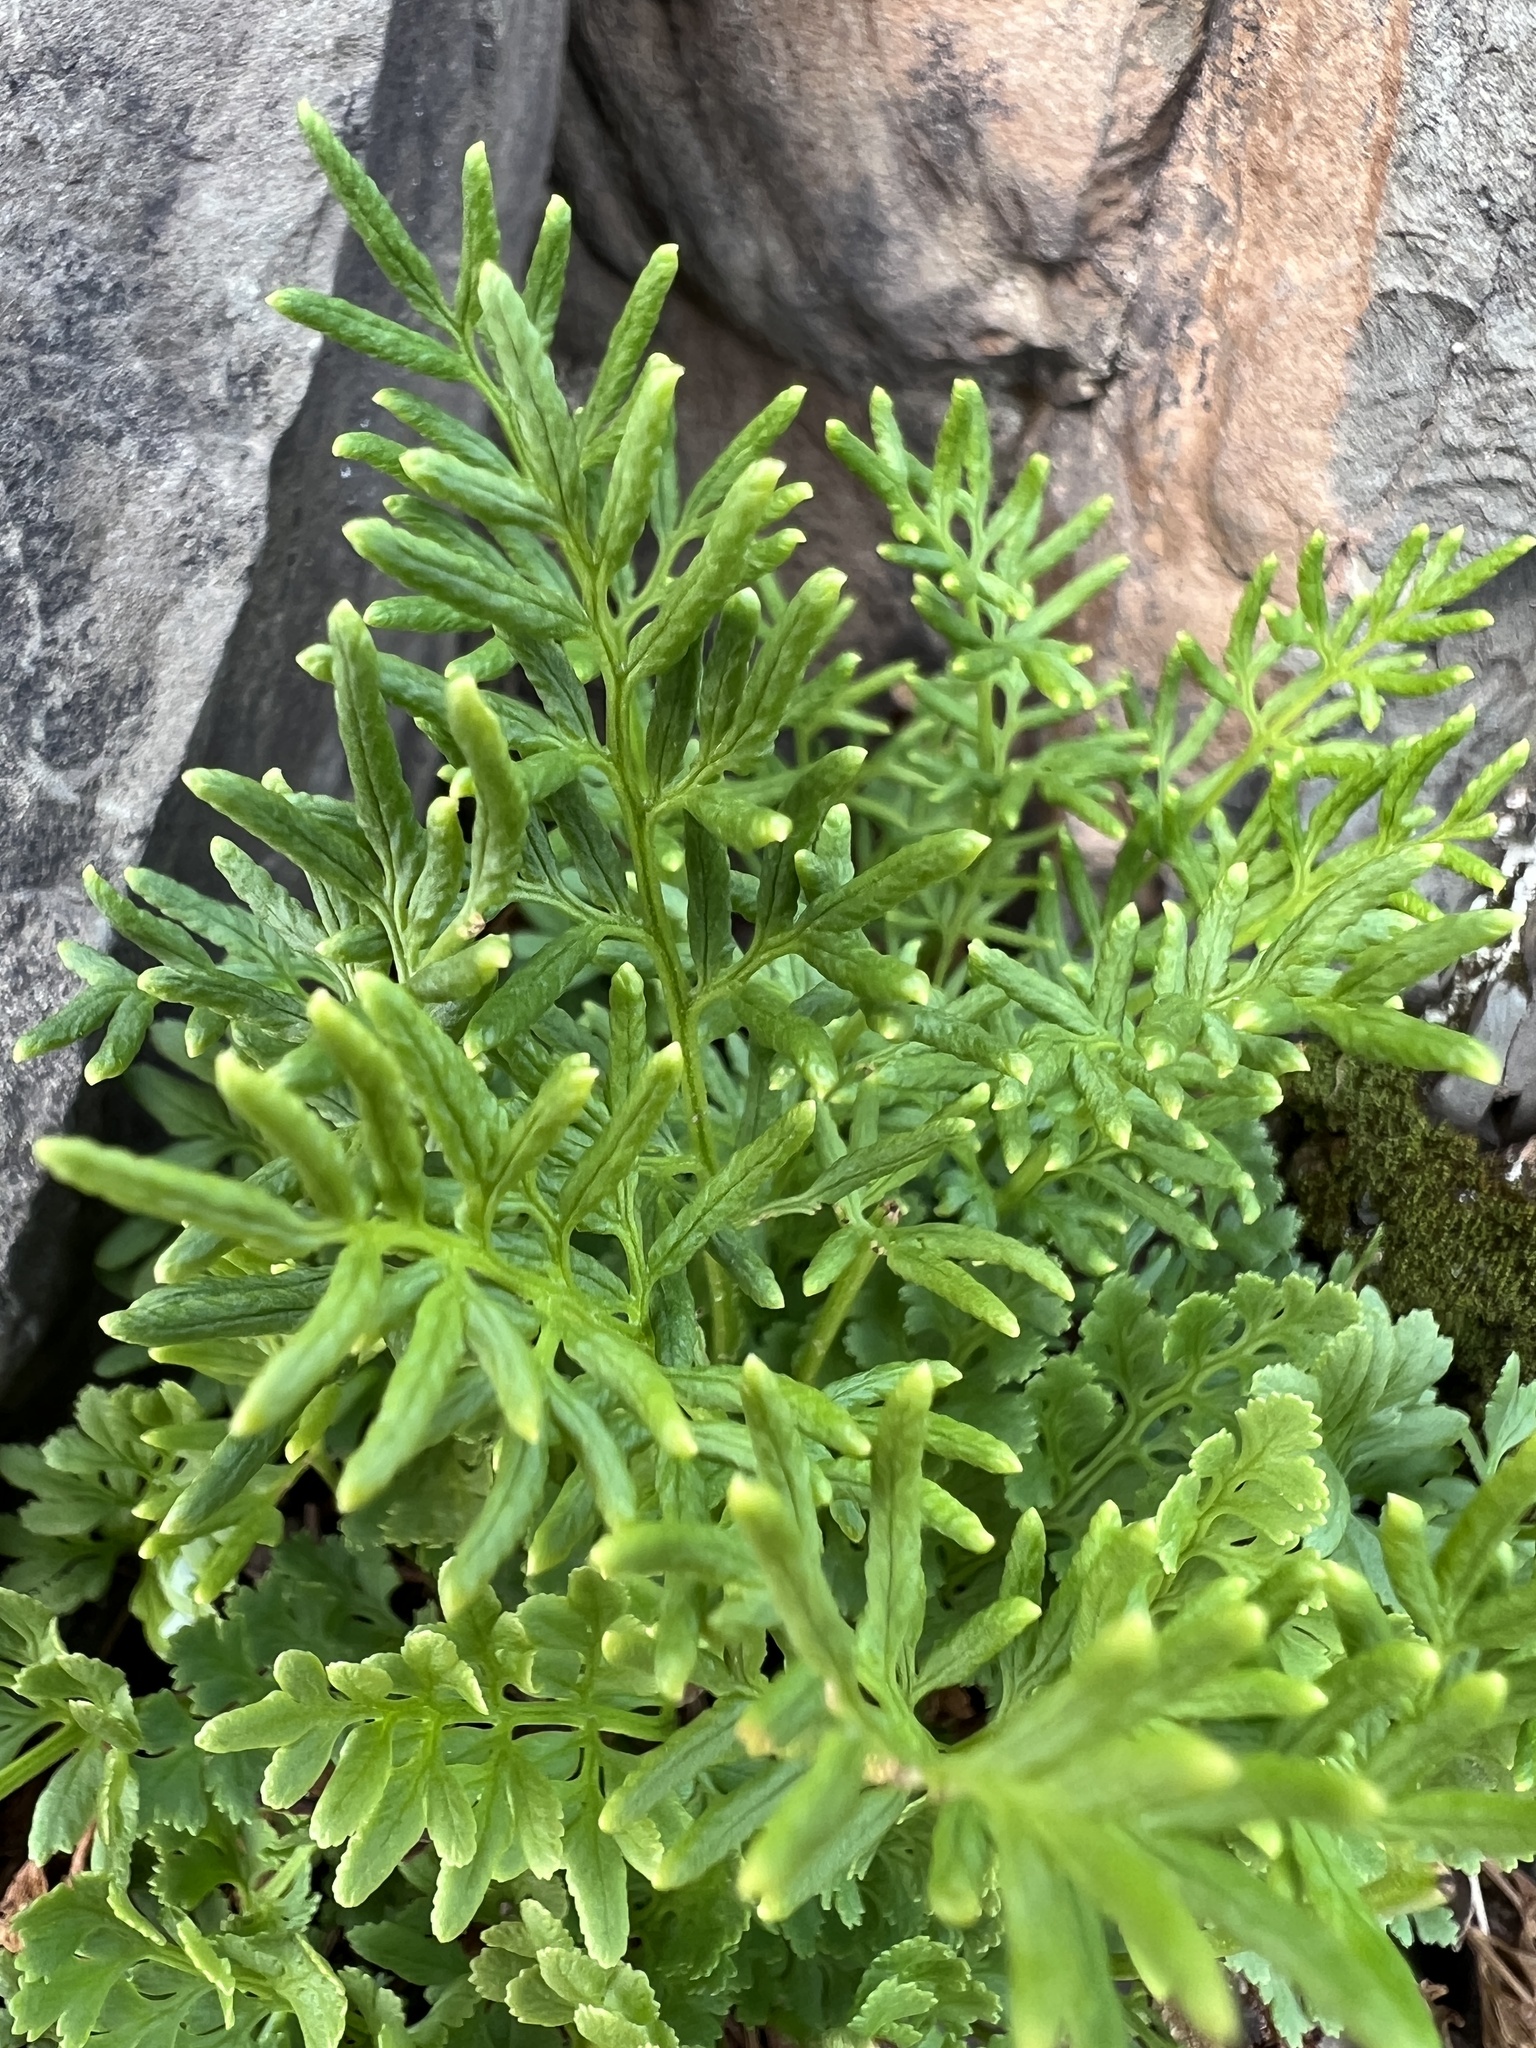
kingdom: Plantae
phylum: Tracheophyta
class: Polypodiopsida
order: Polypodiales
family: Pteridaceae
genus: Cryptogramma
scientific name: Cryptogramma acrostichoides
